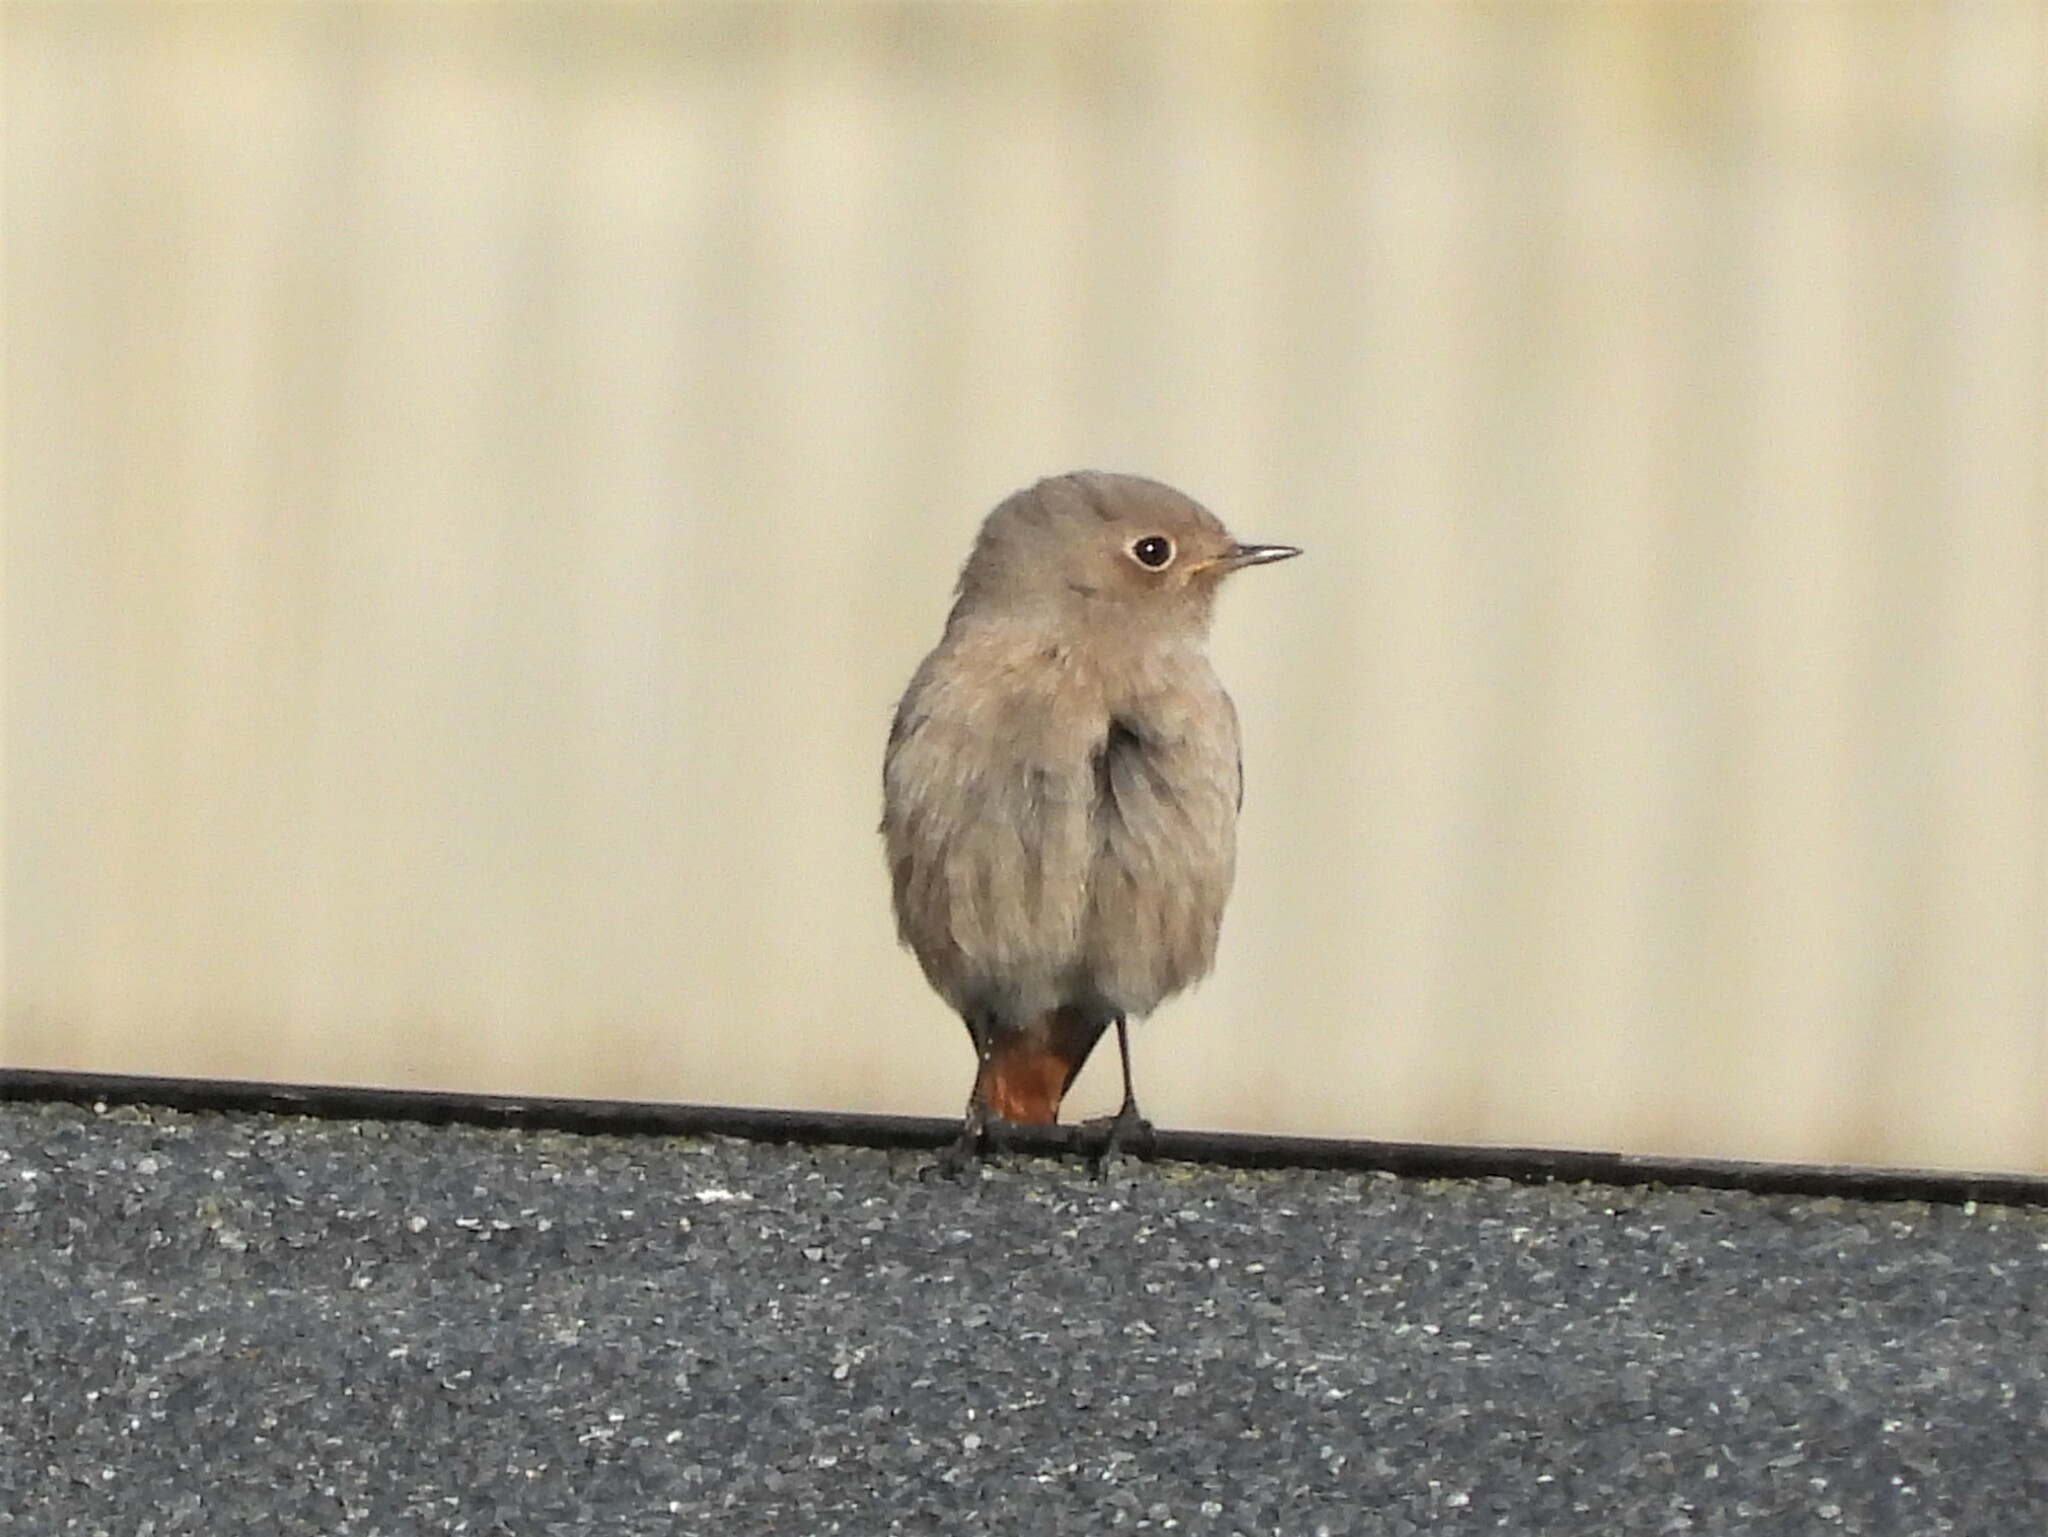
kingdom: Animalia
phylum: Chordata
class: Aves
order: Passeriformes
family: Muscicapidae
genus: Phoenicurus
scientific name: Phoenicurus ochruros
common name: Black redstart
